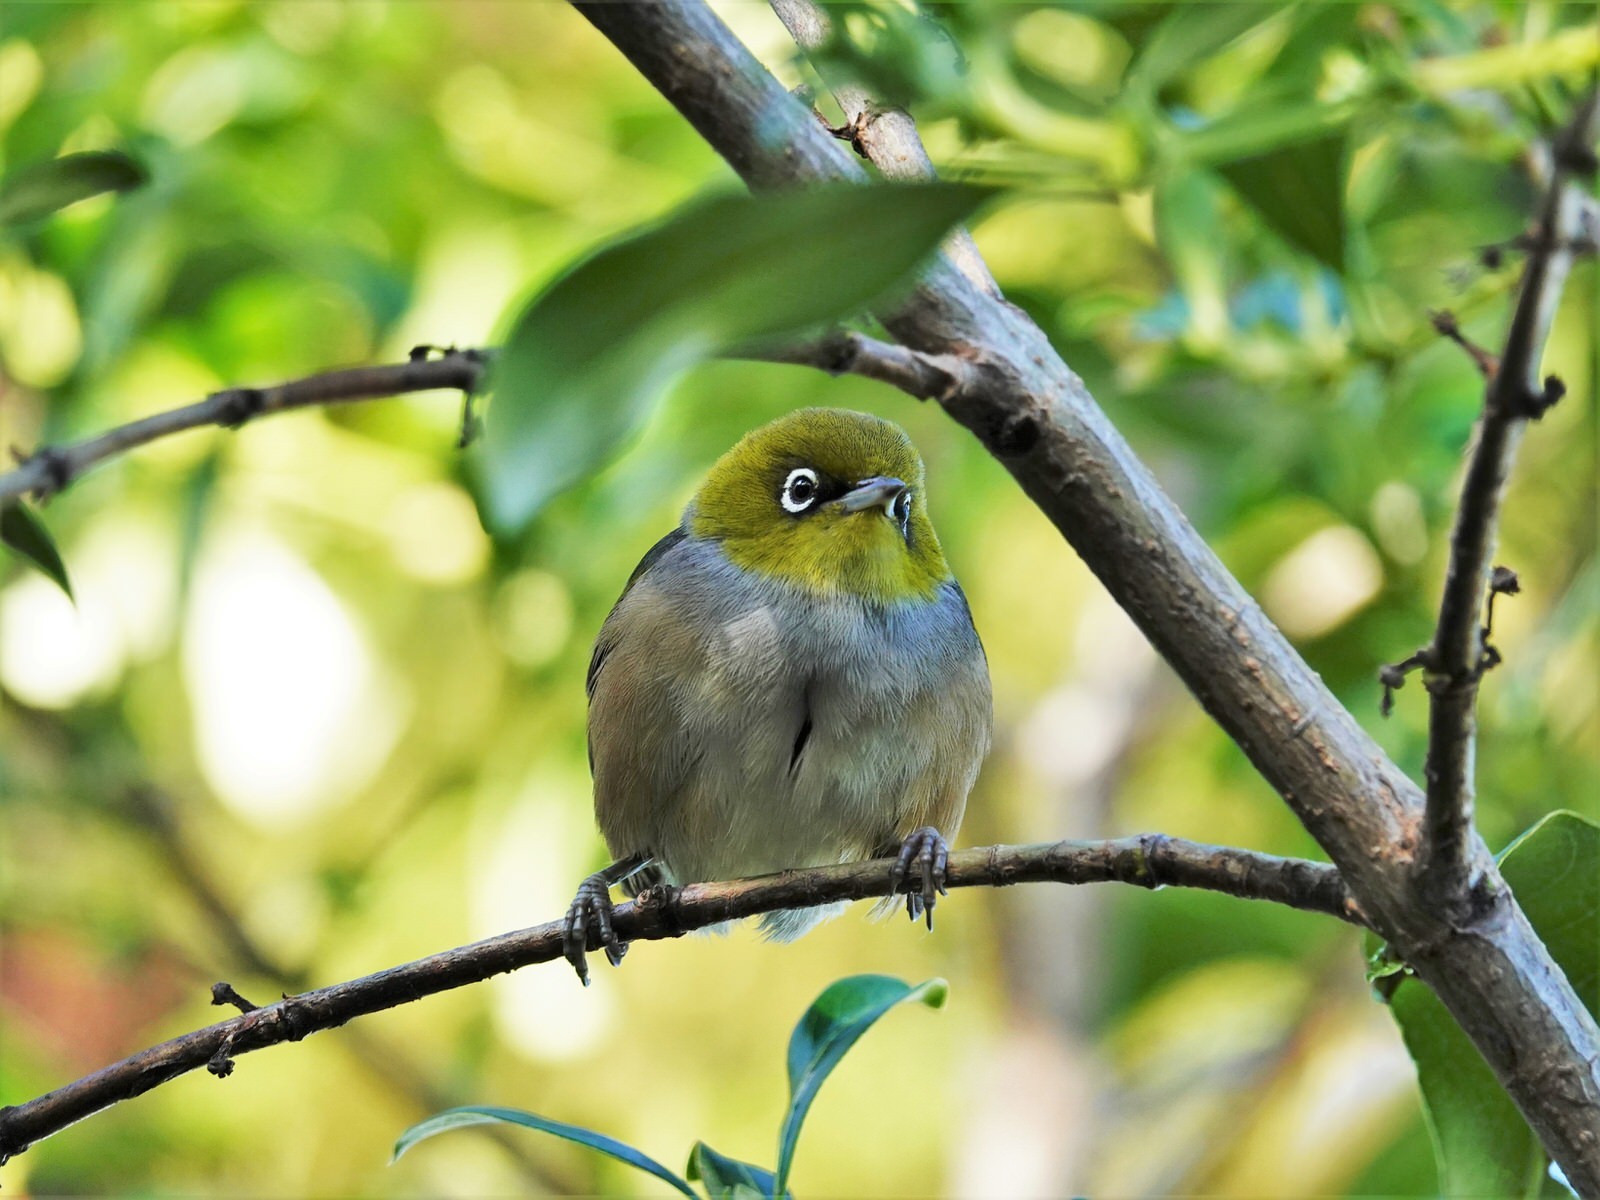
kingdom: Animalia
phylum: Chordata
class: Aves
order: Passeriformes
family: Zosteropidae
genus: Zosterops
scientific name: Zosterops lateralis
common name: Silvereye
